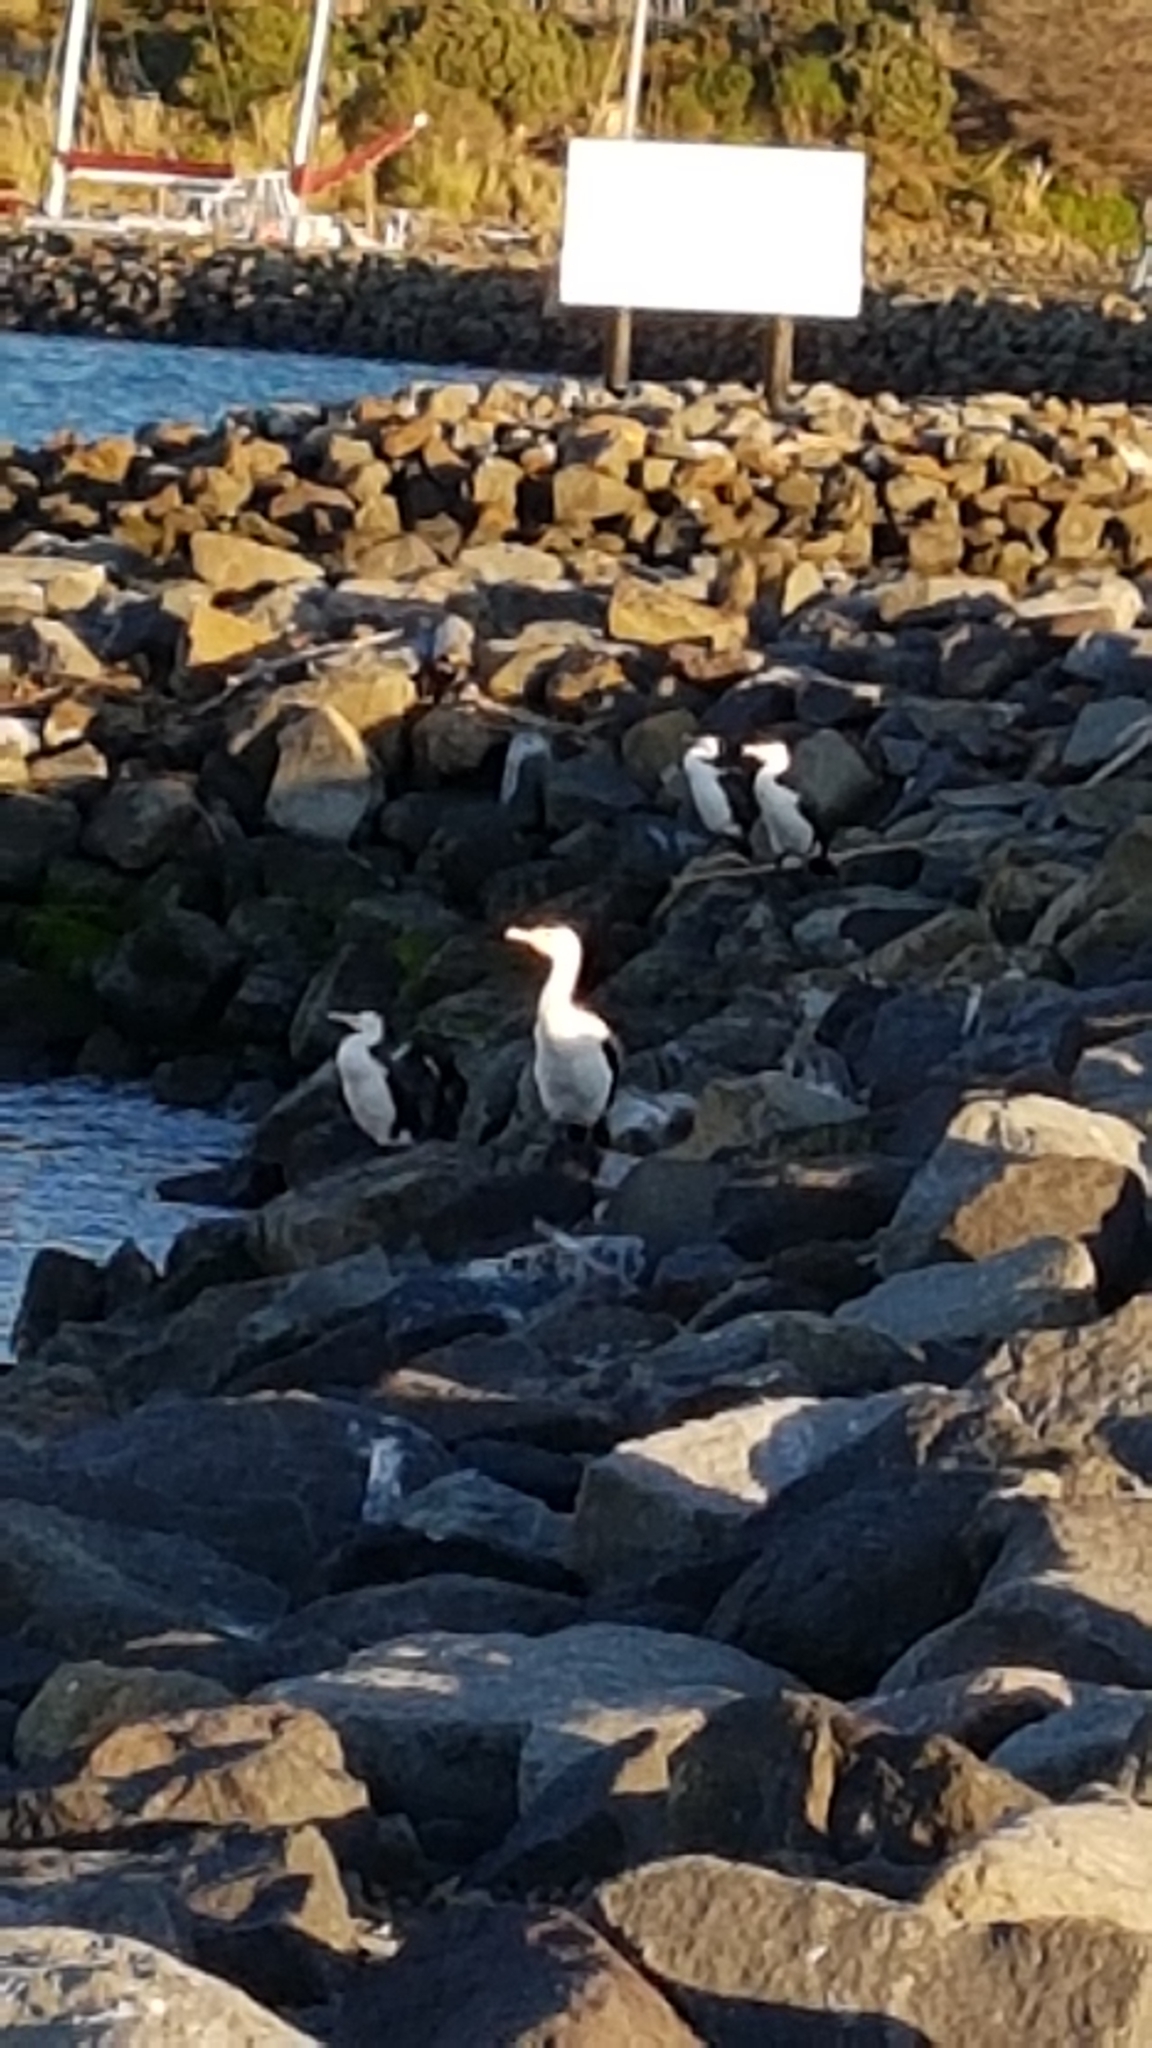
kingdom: Animalia
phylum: Chordata
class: Aves
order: Suliformes
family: Phalacrocoracidae
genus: Phalacrocorax
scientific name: Phalacrocorax varius
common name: Pied cormorant
